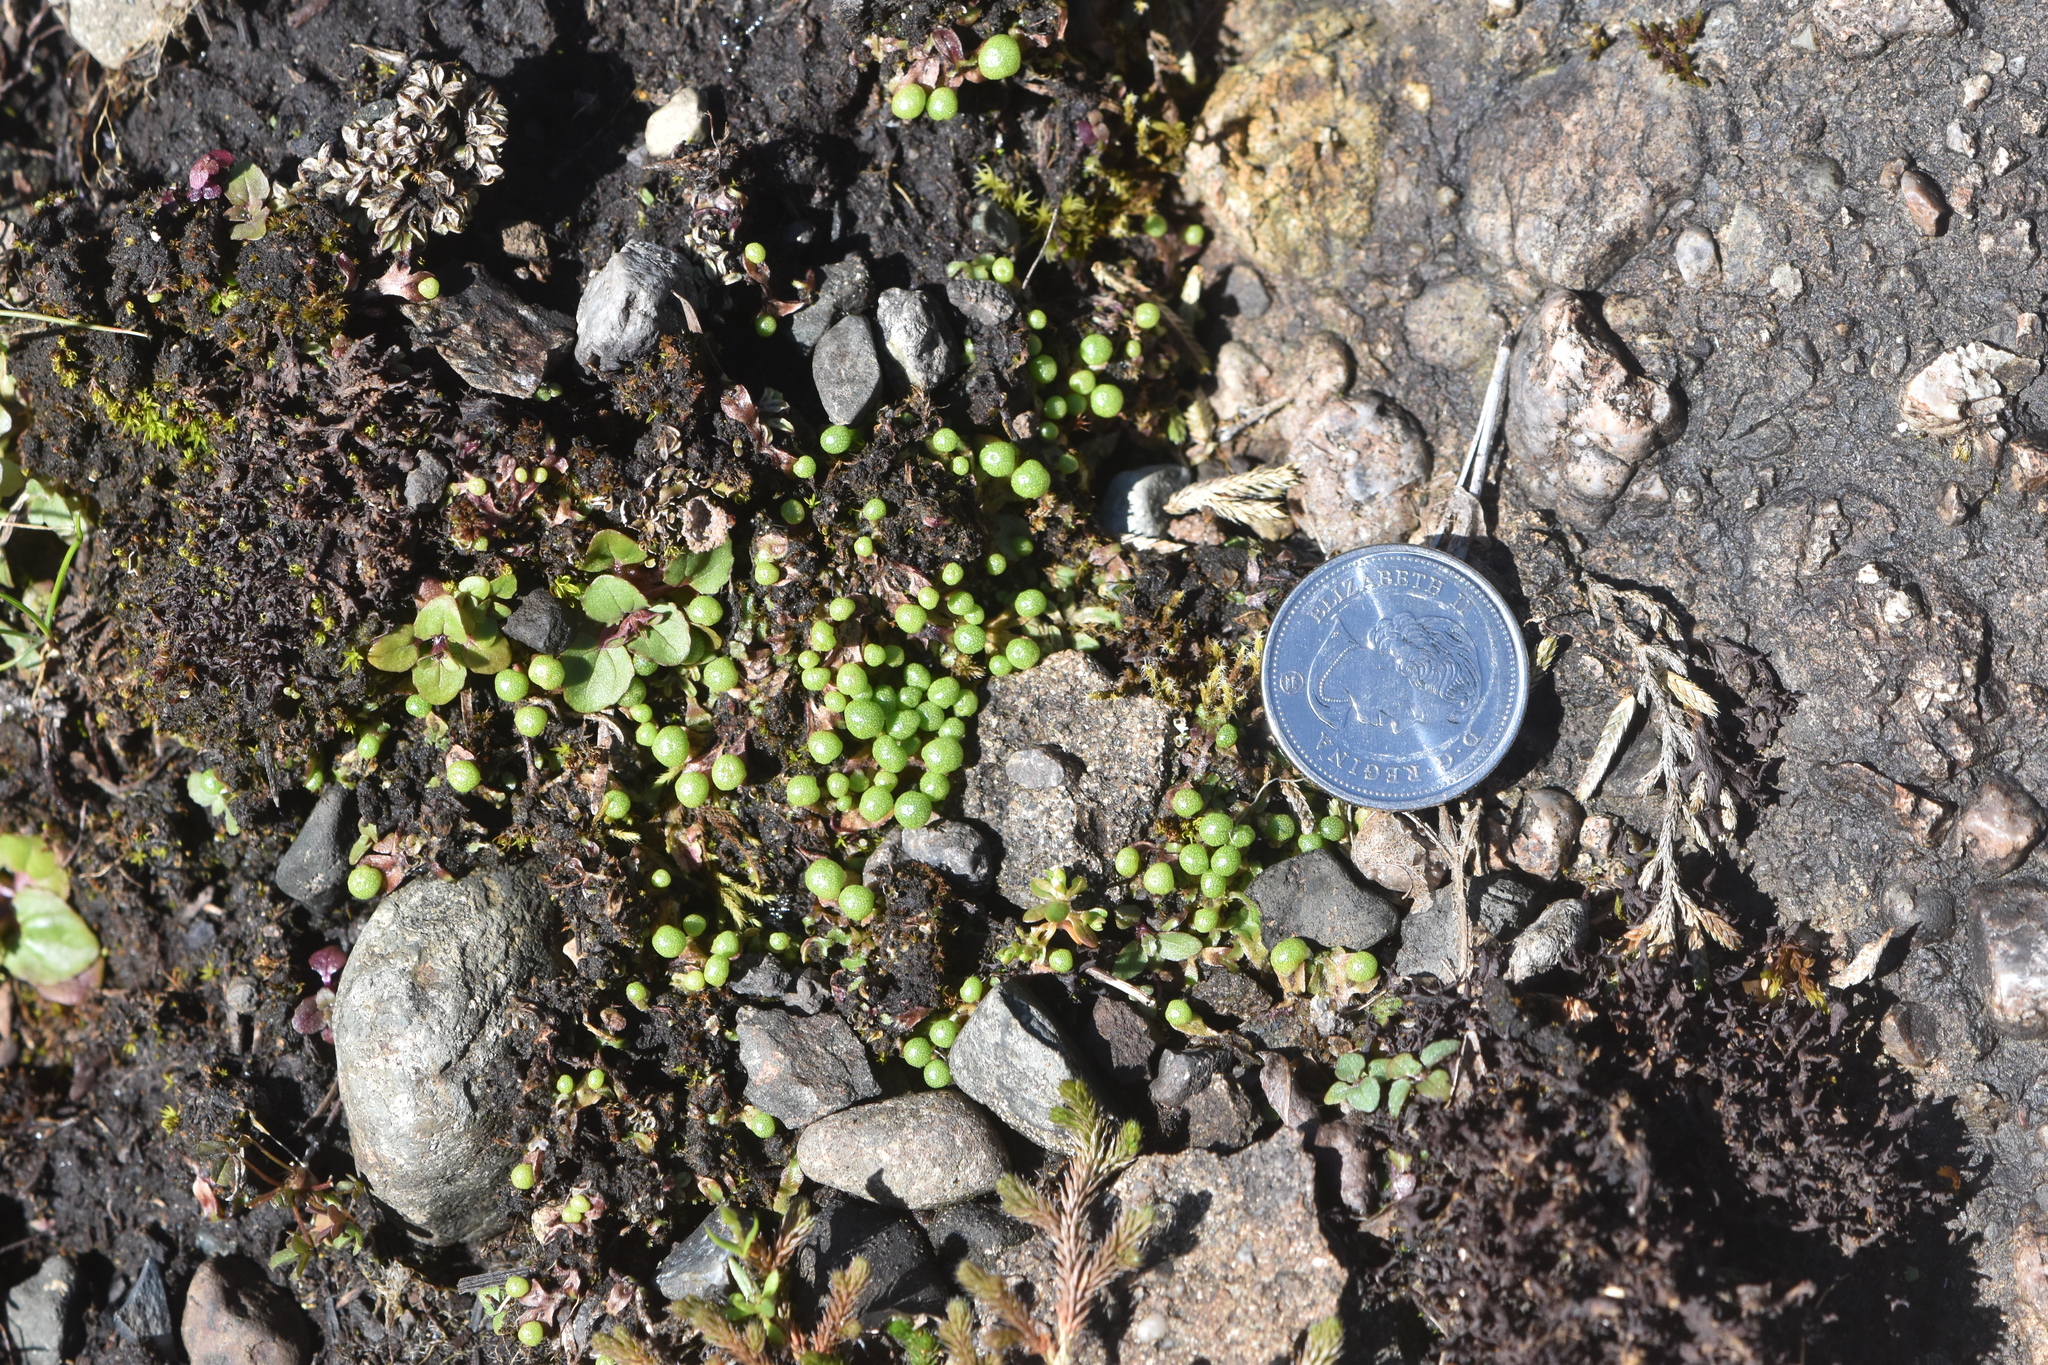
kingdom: Plantae
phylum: Marchantiophyta
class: Marchantiopsida
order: Marchantiales
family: Aytoniaceae
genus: Mannia
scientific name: Mannia gracilis
